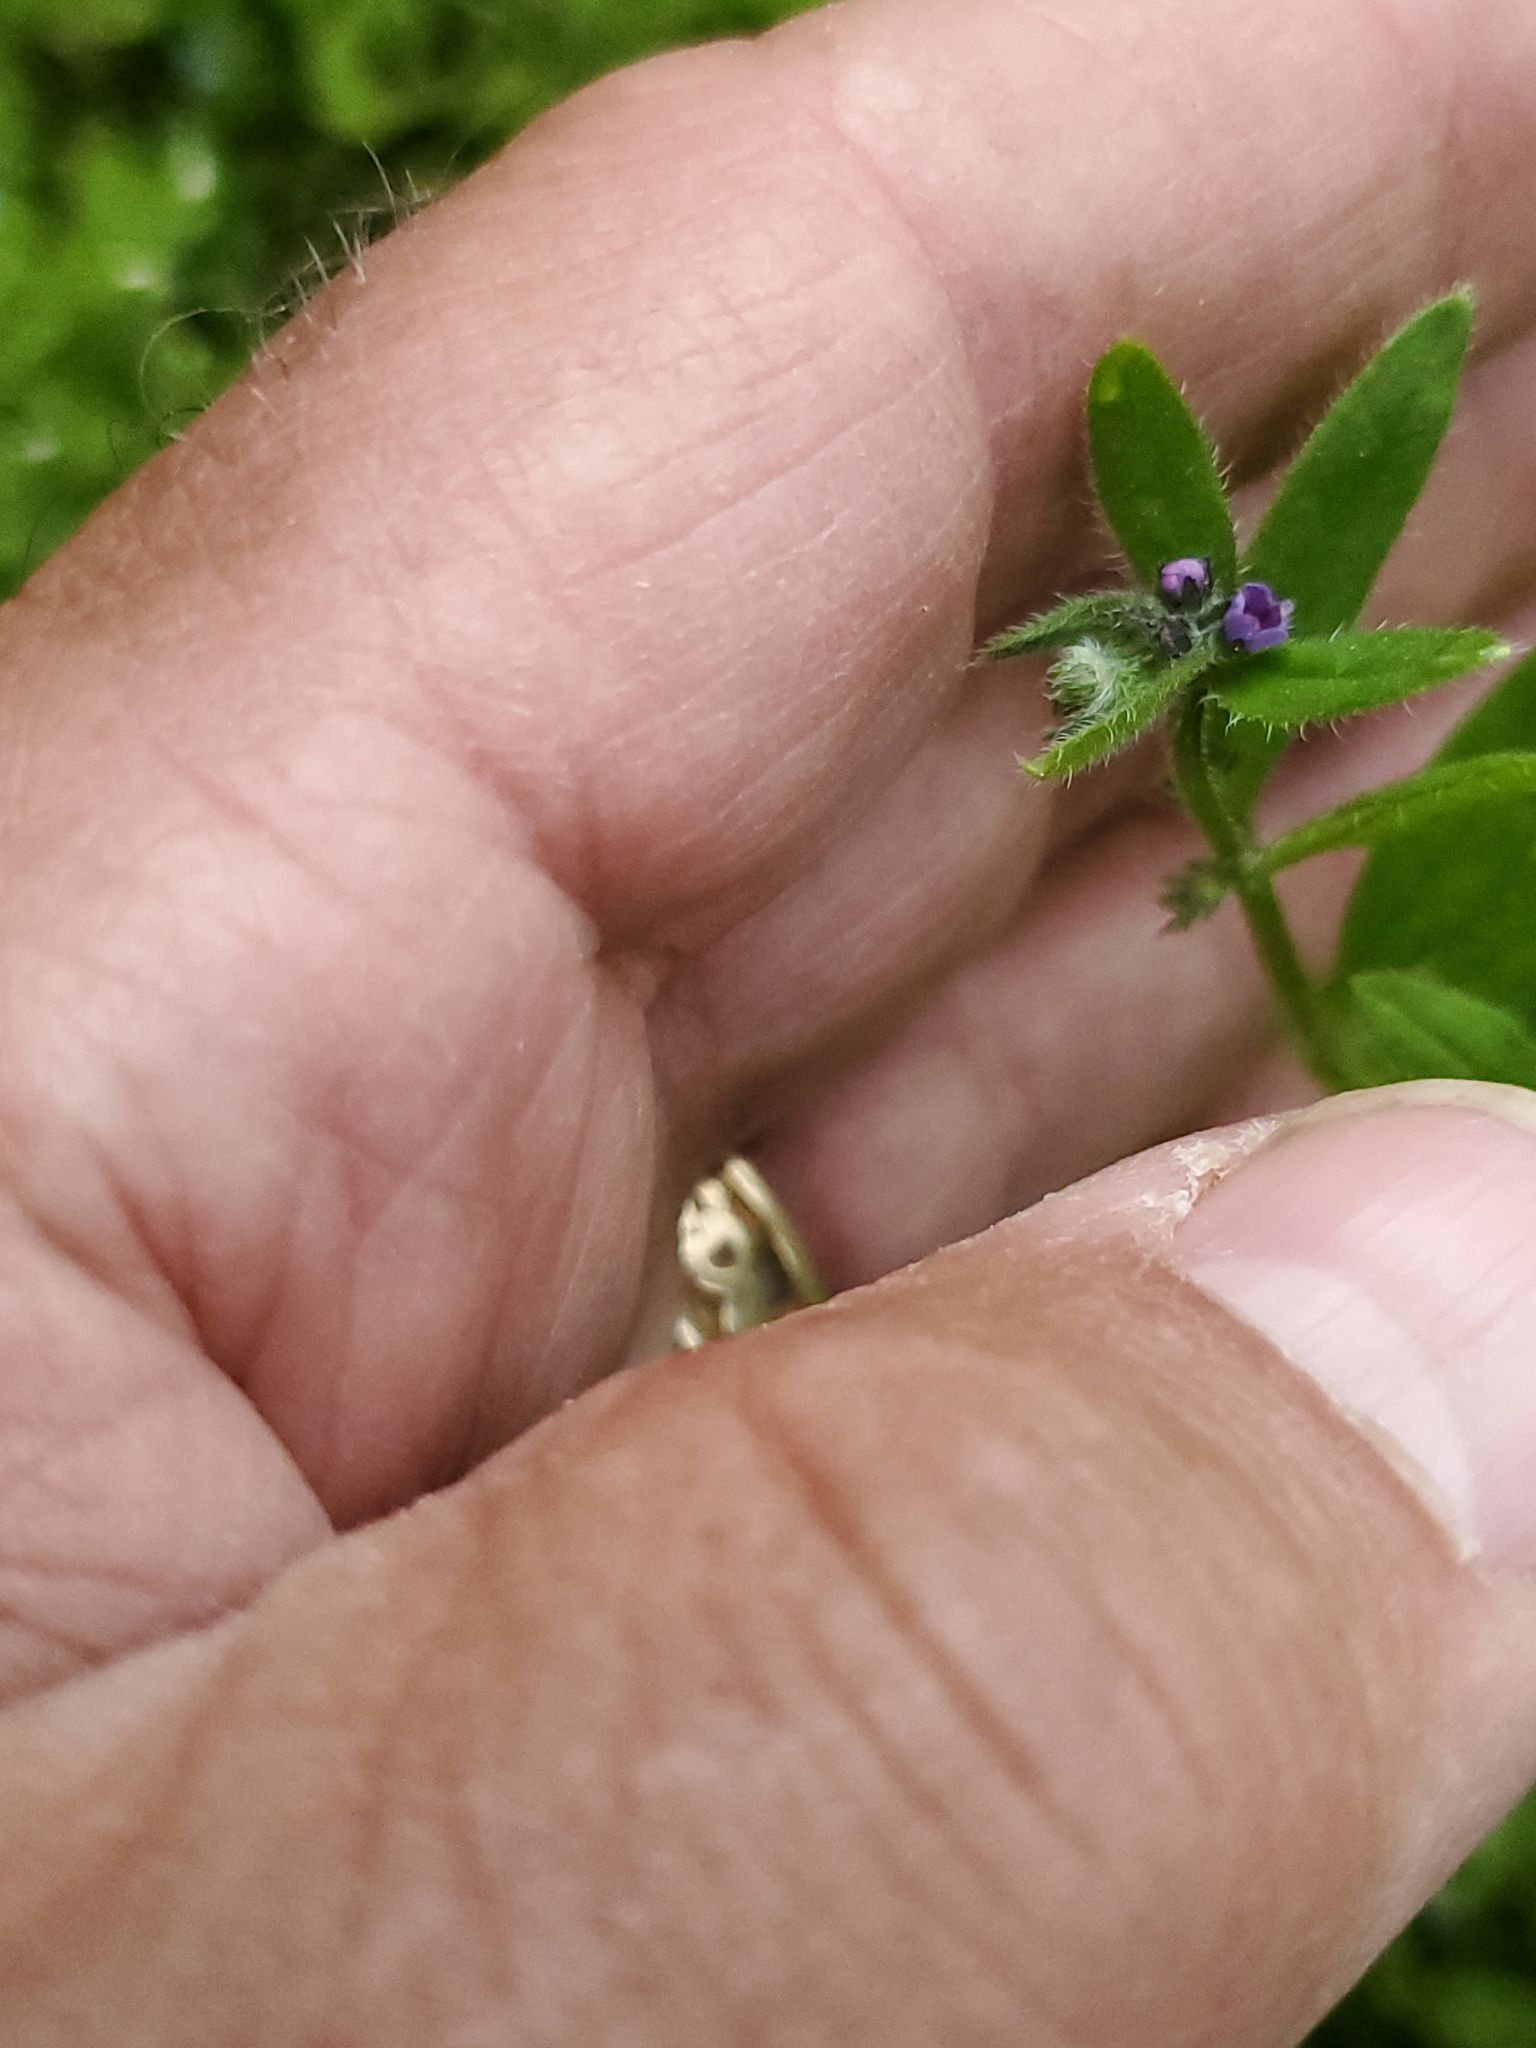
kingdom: Plantae
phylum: Tracheophyta
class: Magnoliopsida
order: Boraginales
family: Boraginaceae
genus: Asperugo
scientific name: Asperugo procumbens
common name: Madwort
